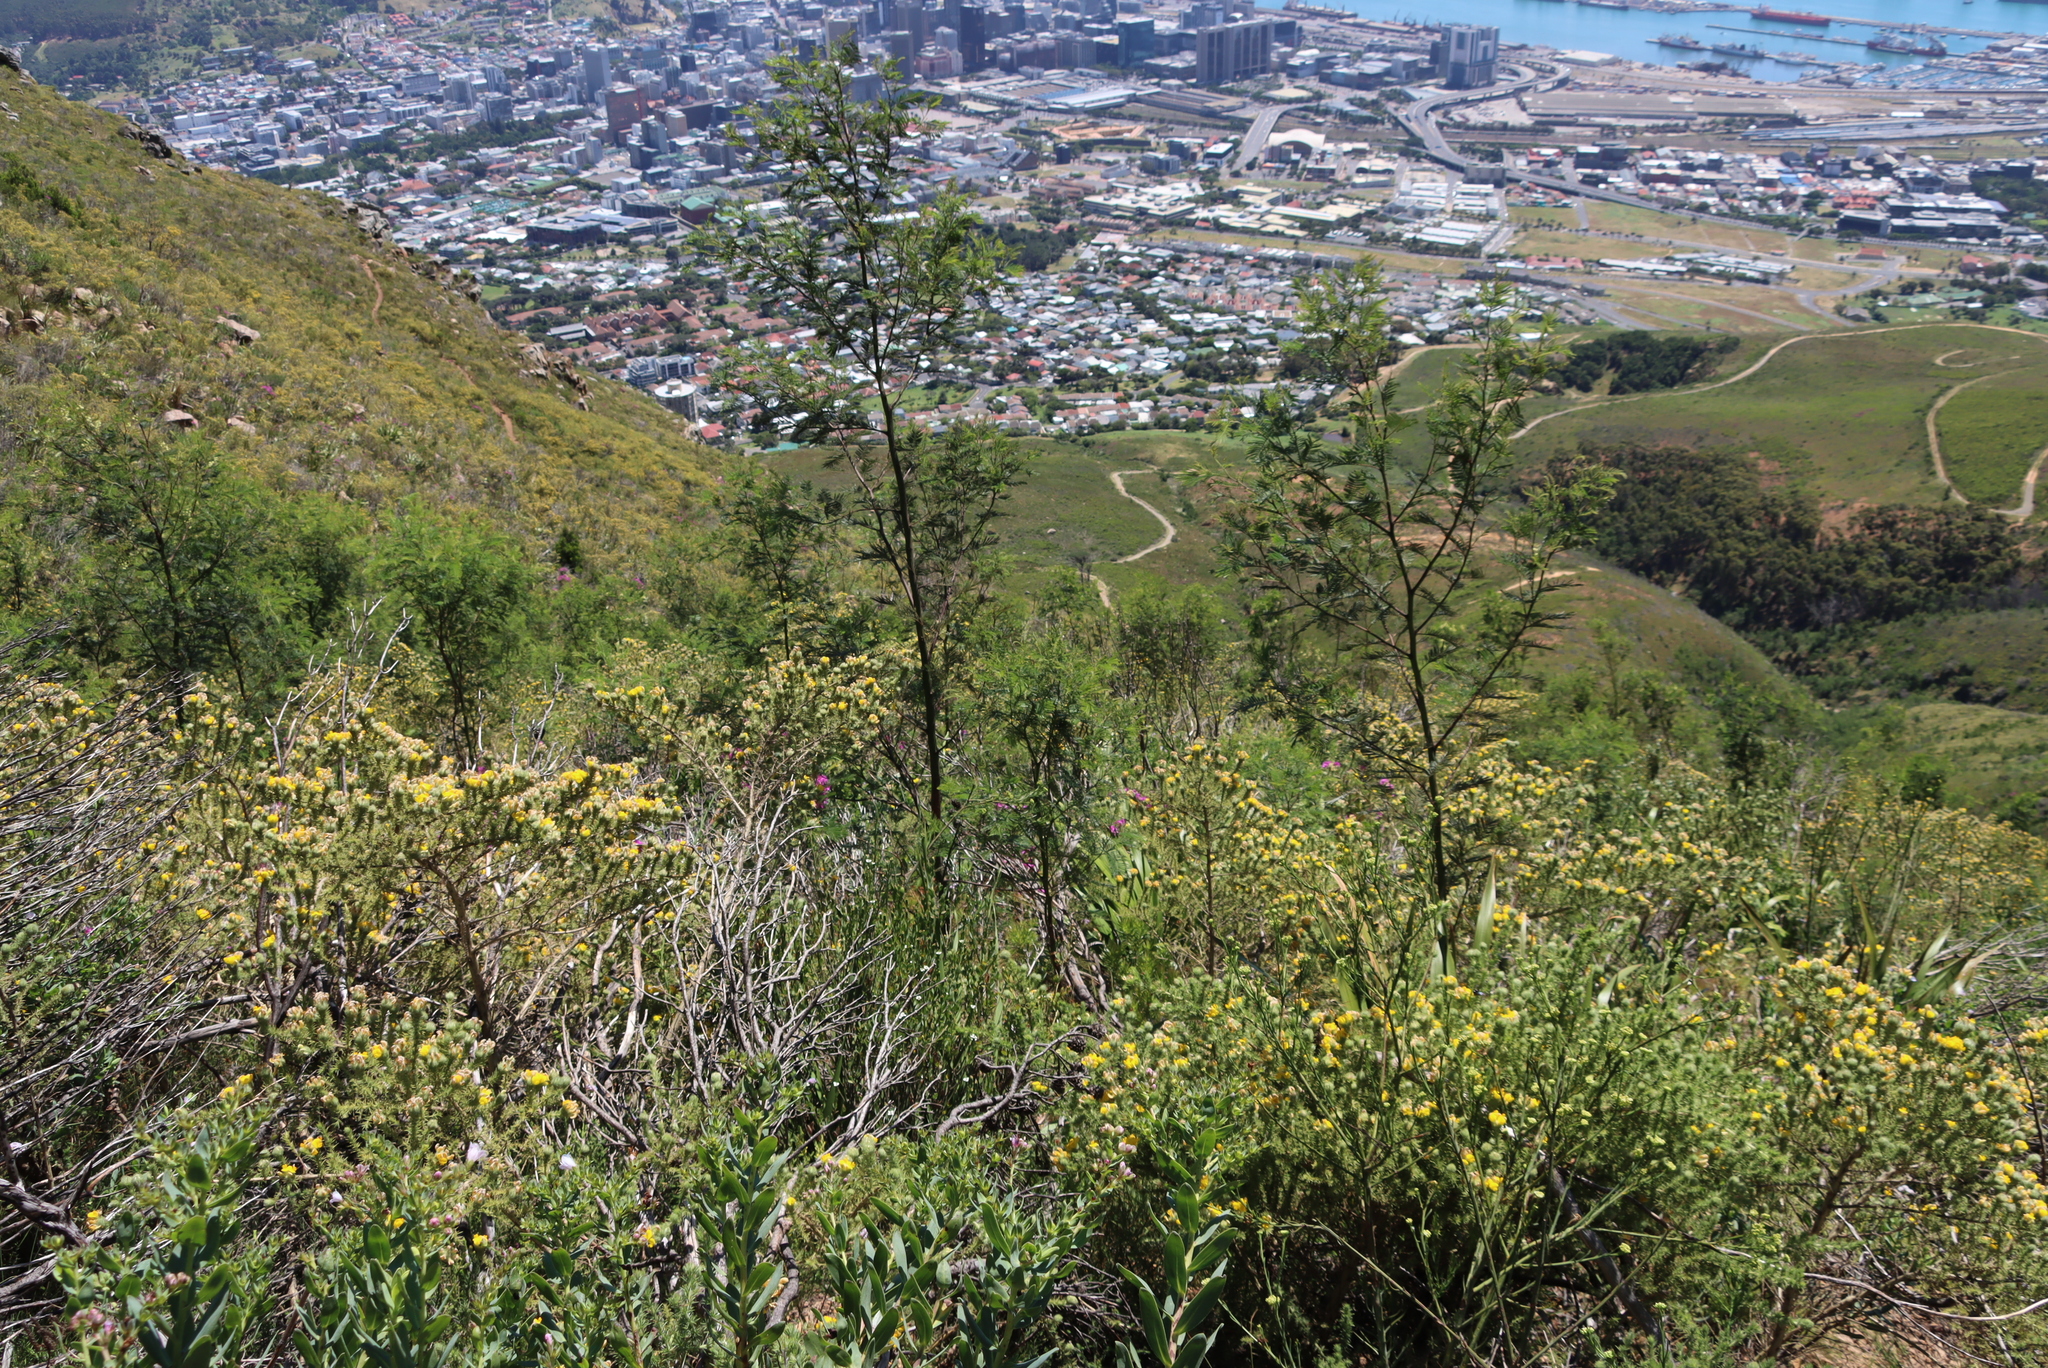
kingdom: Plantae
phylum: Tracheophyta
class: Magnoliopsida
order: Fabales
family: Fabaceae
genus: Acacia
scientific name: Acacia mearnsii
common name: Black wattle
